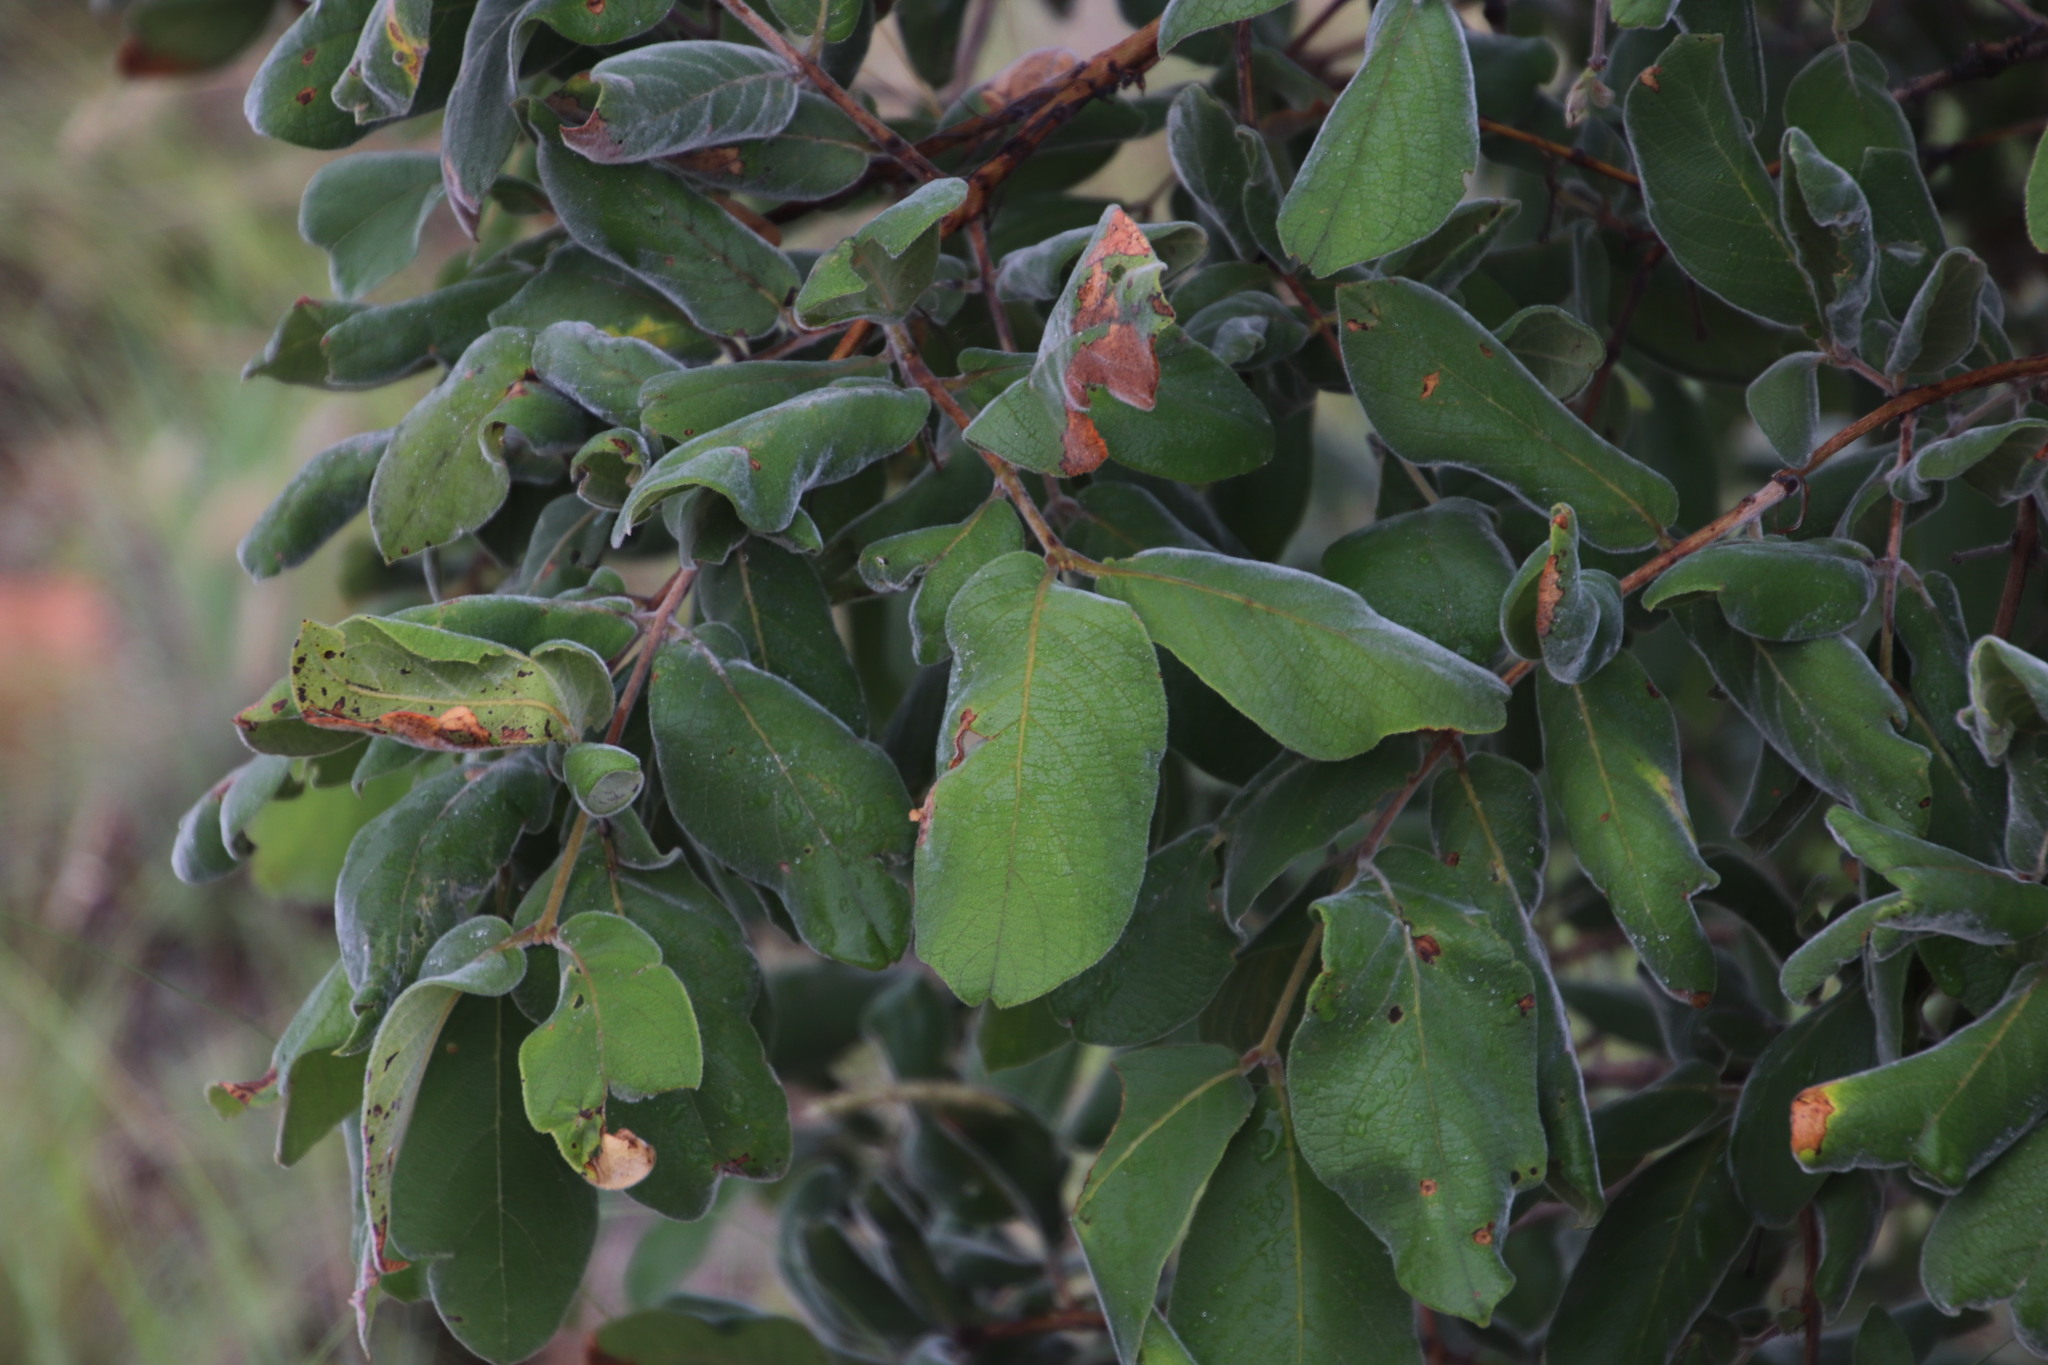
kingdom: Plantae
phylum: Tracheophyta
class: Magnoliopsida
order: Myrtales
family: Combretaceae
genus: Combretum
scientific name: Combretum molle
